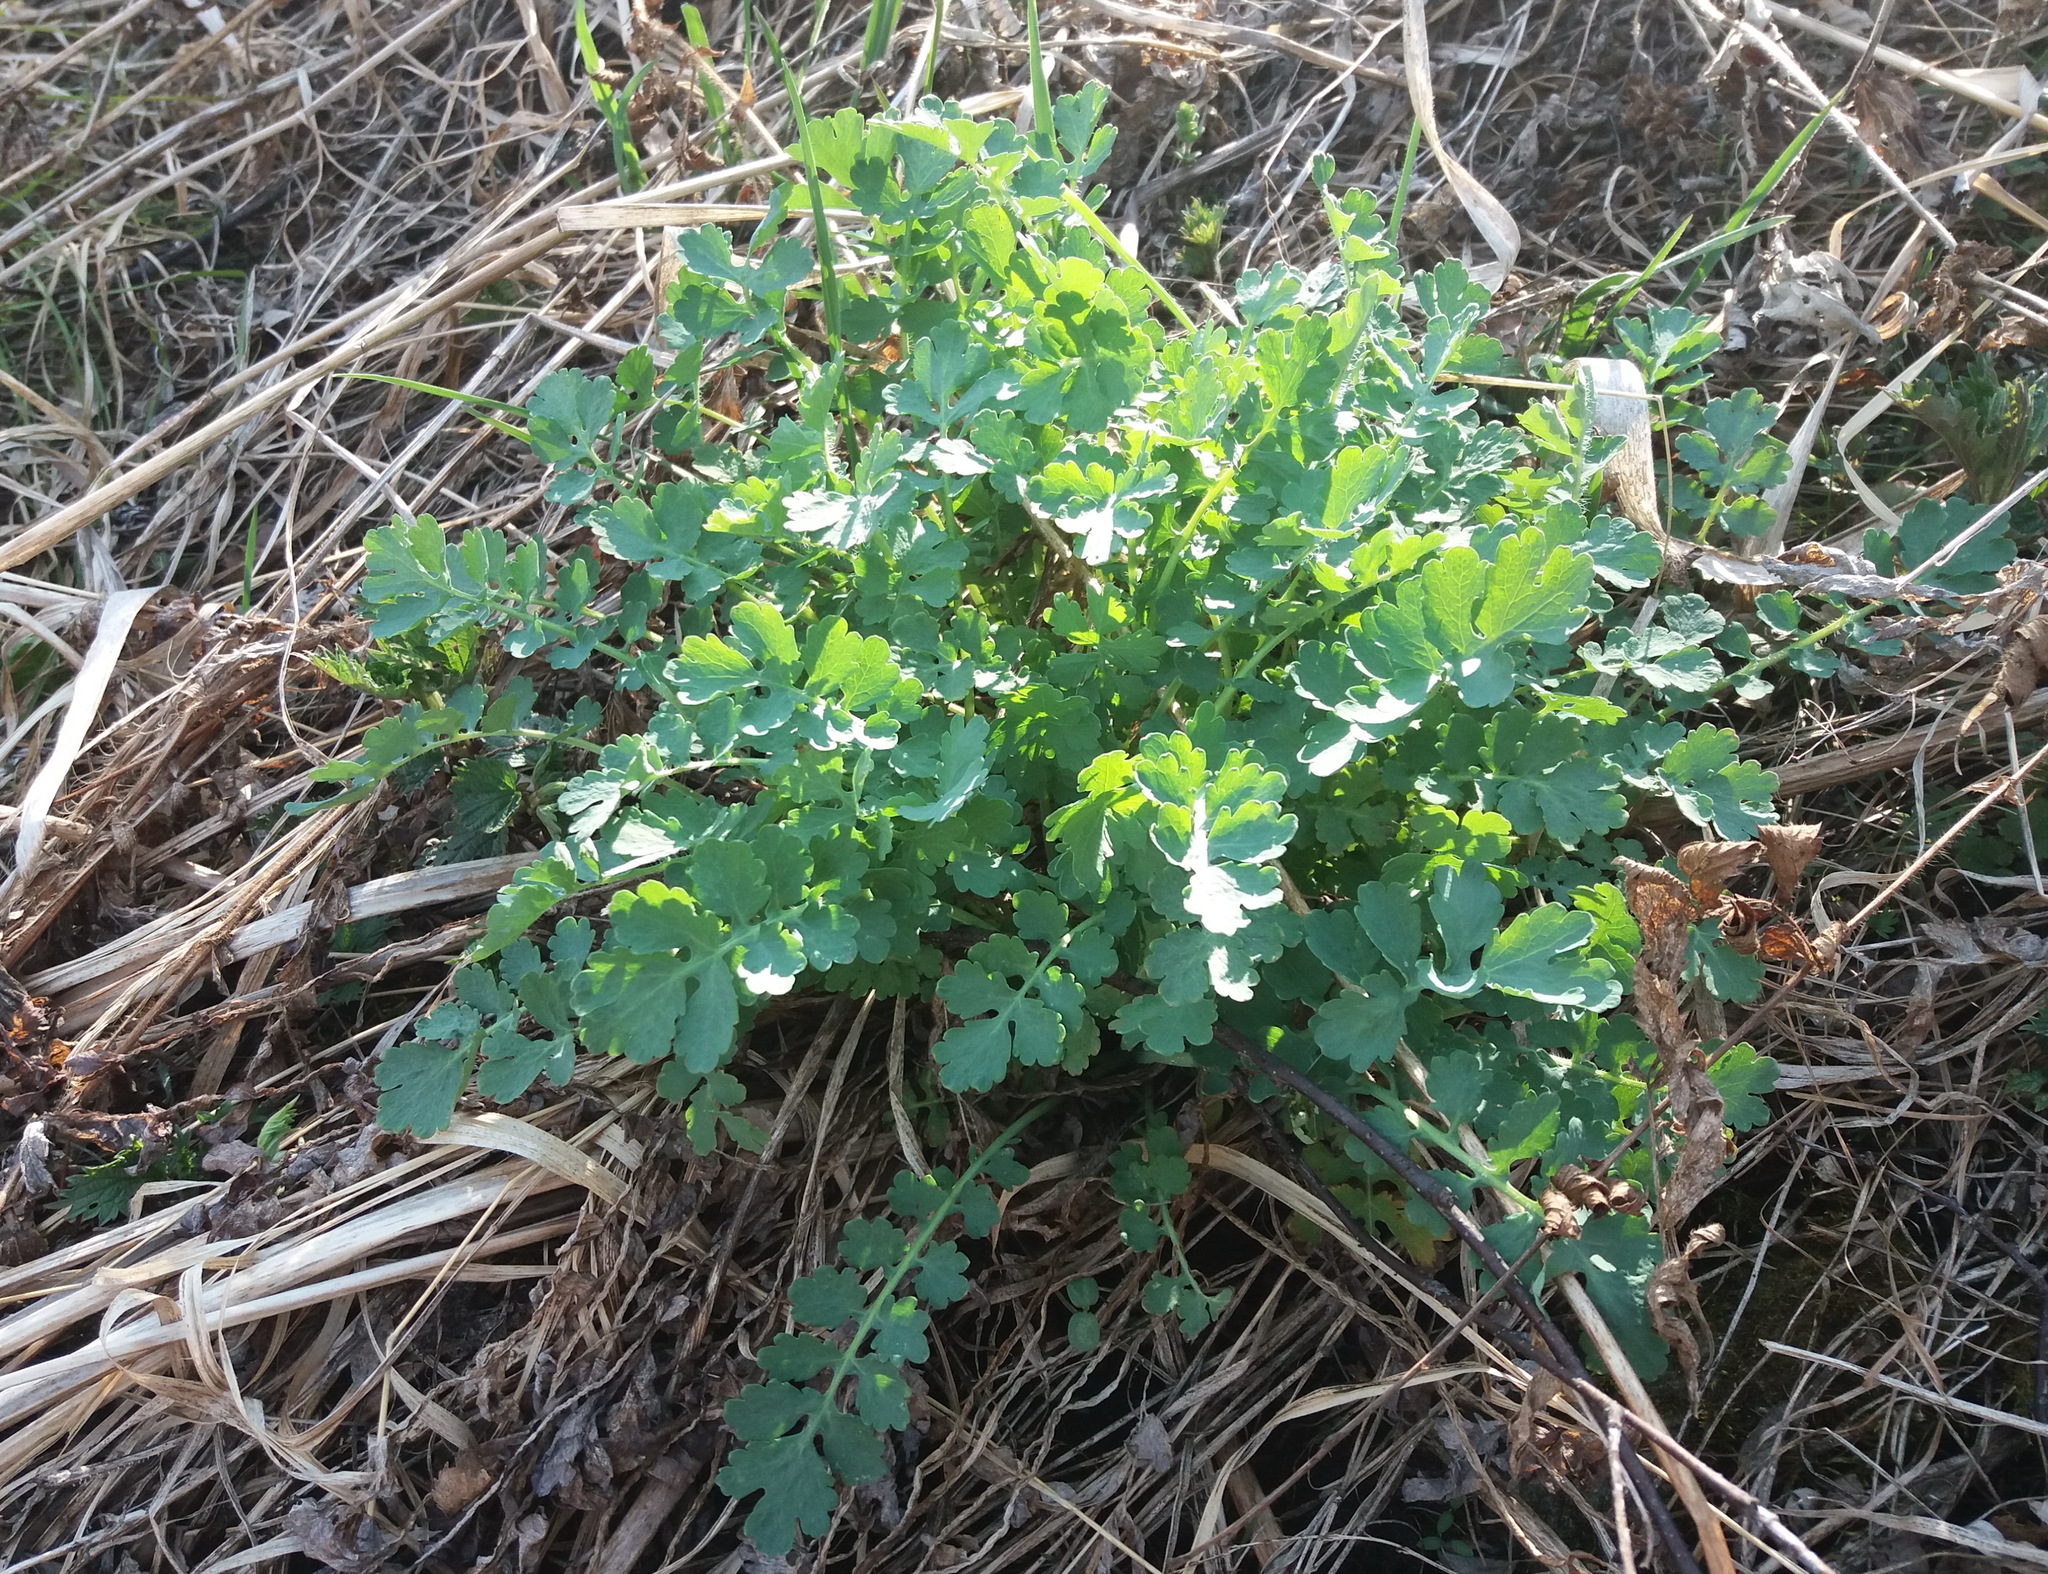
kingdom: Plantae
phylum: Tracheophyta
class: Magnoliopsida
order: Ranunculales
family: Papaveraceae
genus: Chelidonium
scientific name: Chelidonium majus
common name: Greater celandine
